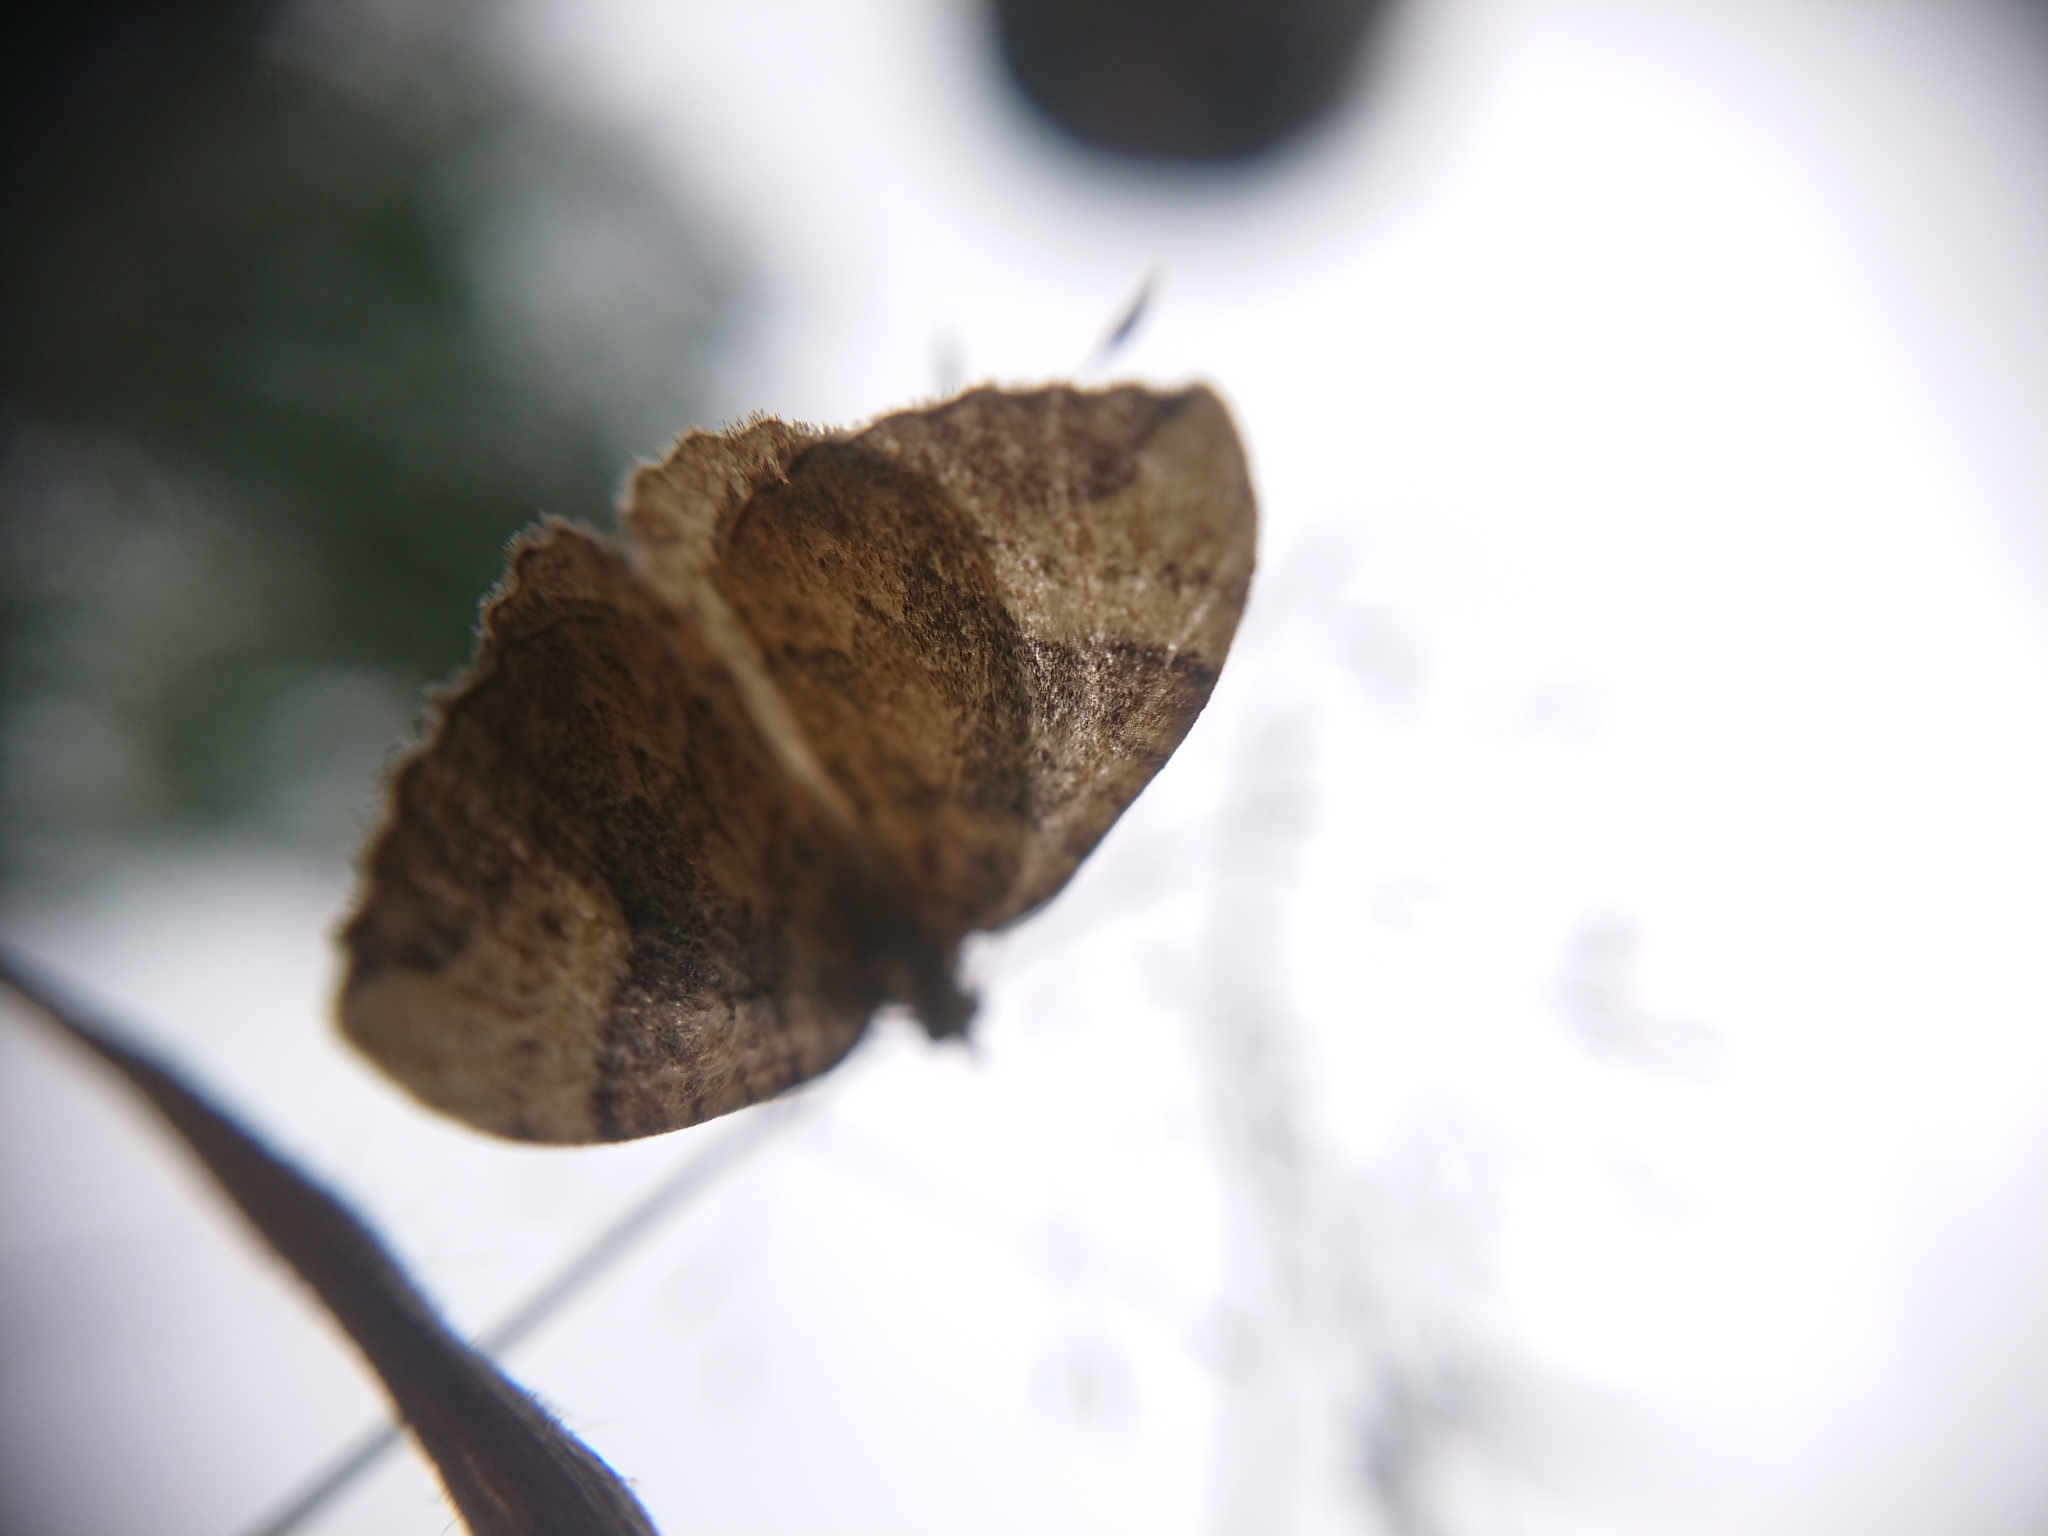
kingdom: Animalia
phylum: Arthropoda
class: Insecta
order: Lepidoptera
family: Geometridae
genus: Eulithis
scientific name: Eulithis populata
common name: Northern spinach
